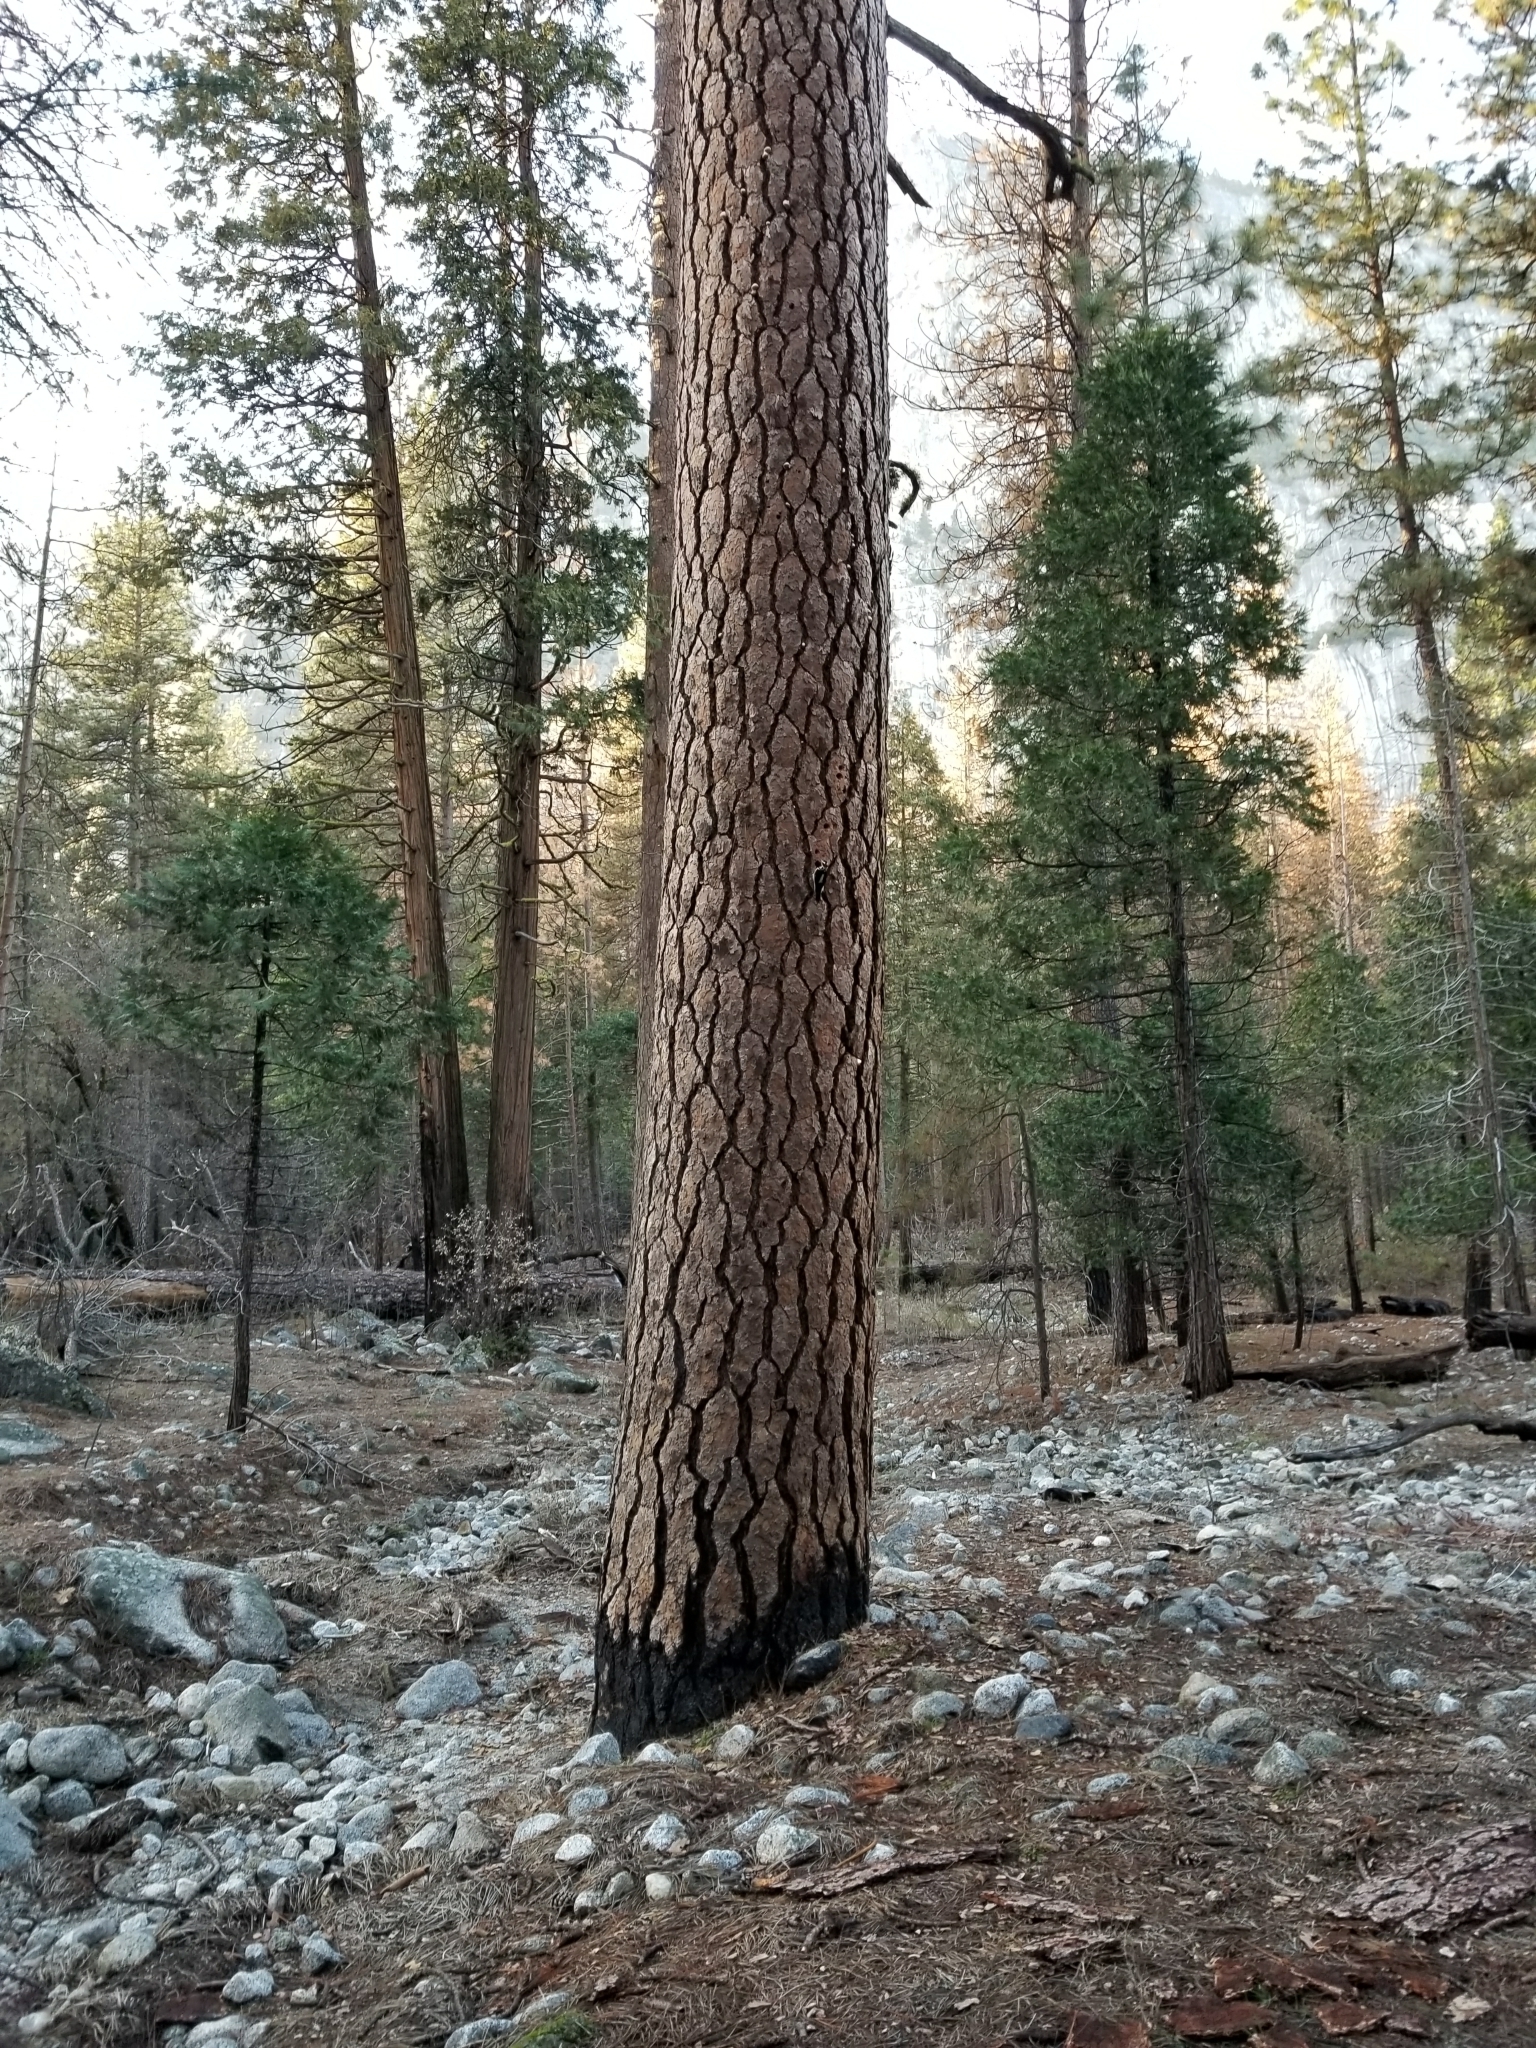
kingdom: Animalia
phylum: Chordata
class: Aves
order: Piciformes
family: Picidae
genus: Leuconotopicus
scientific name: Leuconotopicus villosus
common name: Hairy woodpecker
